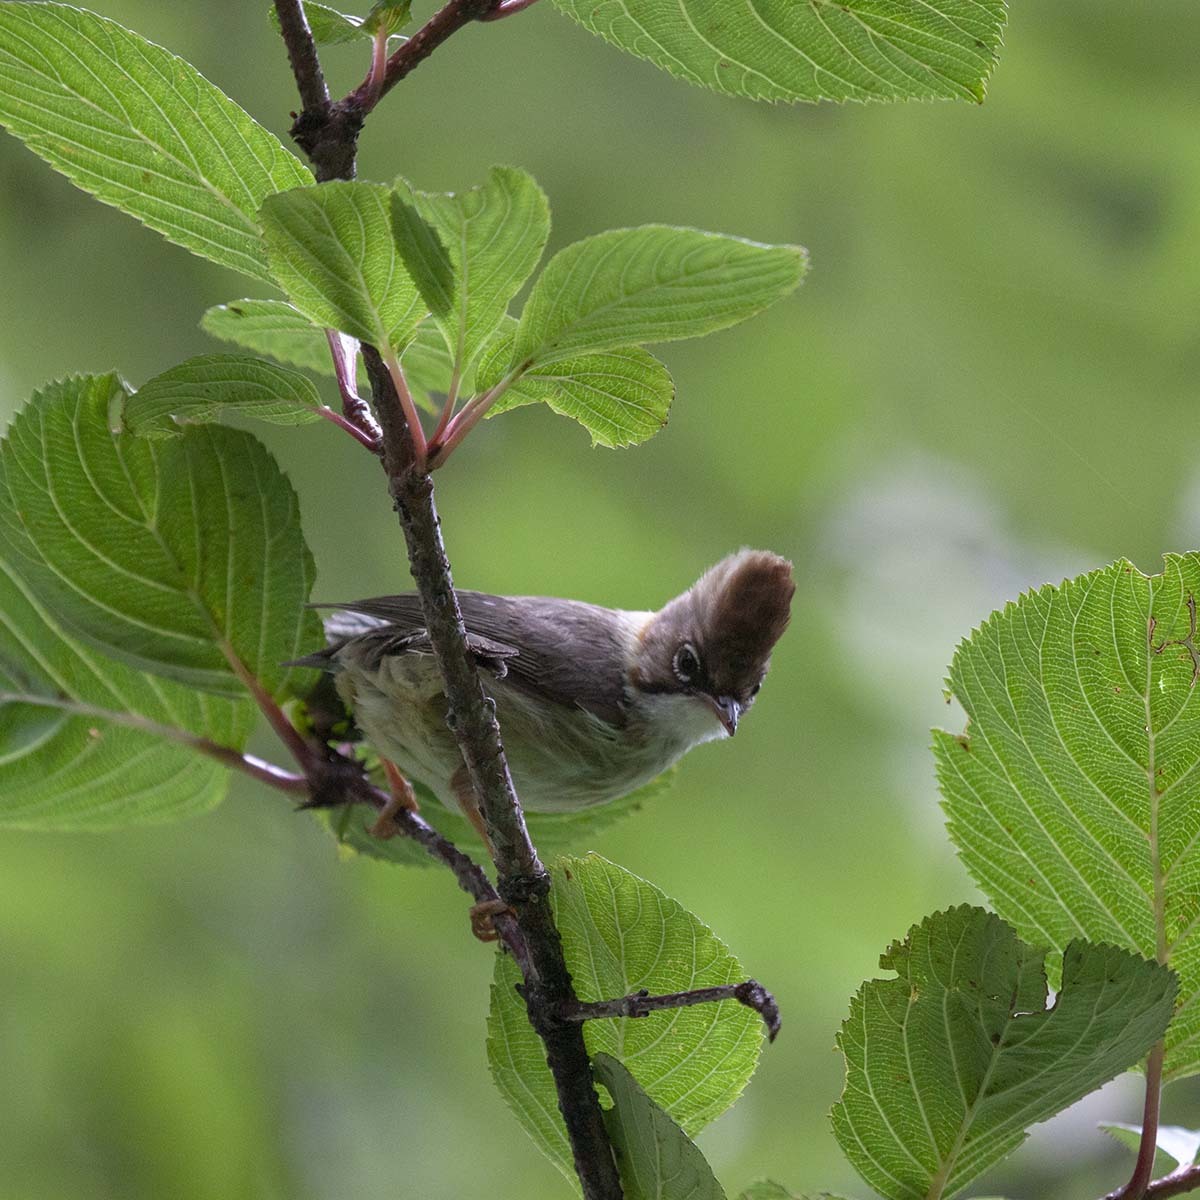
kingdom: Animalia
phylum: Chordata
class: Aves
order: Passeriformes
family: Zosteropidae
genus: Yuhina
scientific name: Yuhina flavicollis
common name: Whiskered yuhina
